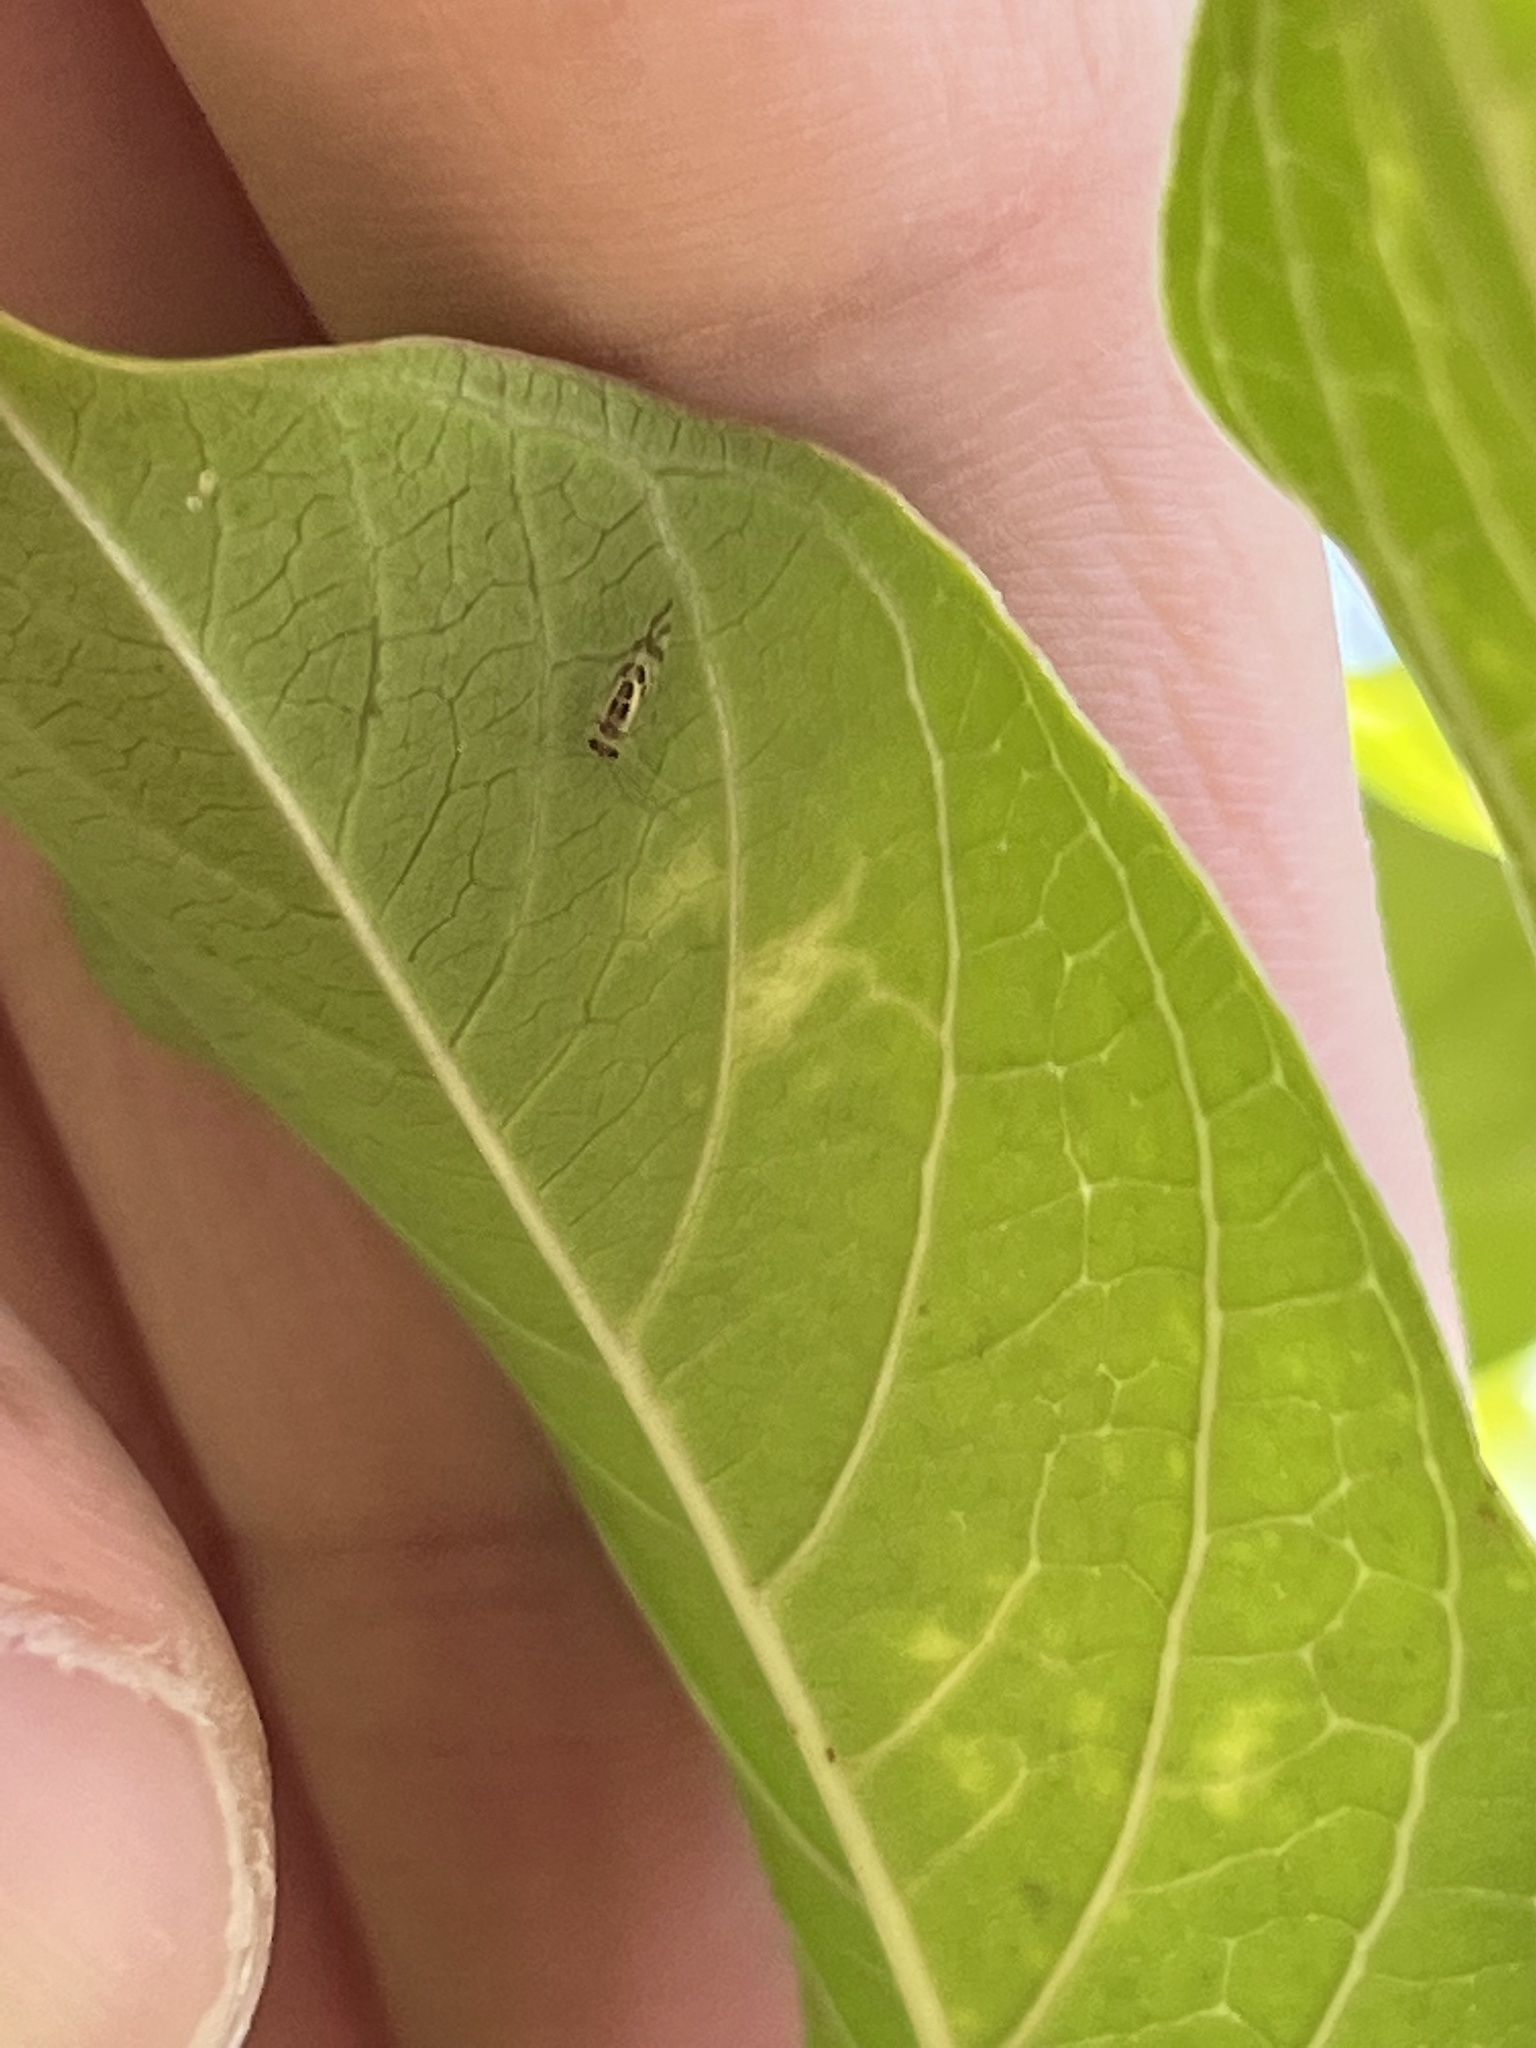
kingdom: Animalia
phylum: Arthropoda
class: Insecta
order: Psocodea
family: Stenopsocidae
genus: Graphopsocus
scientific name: Graphopsocus cruciatus
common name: Lizard bark louse
